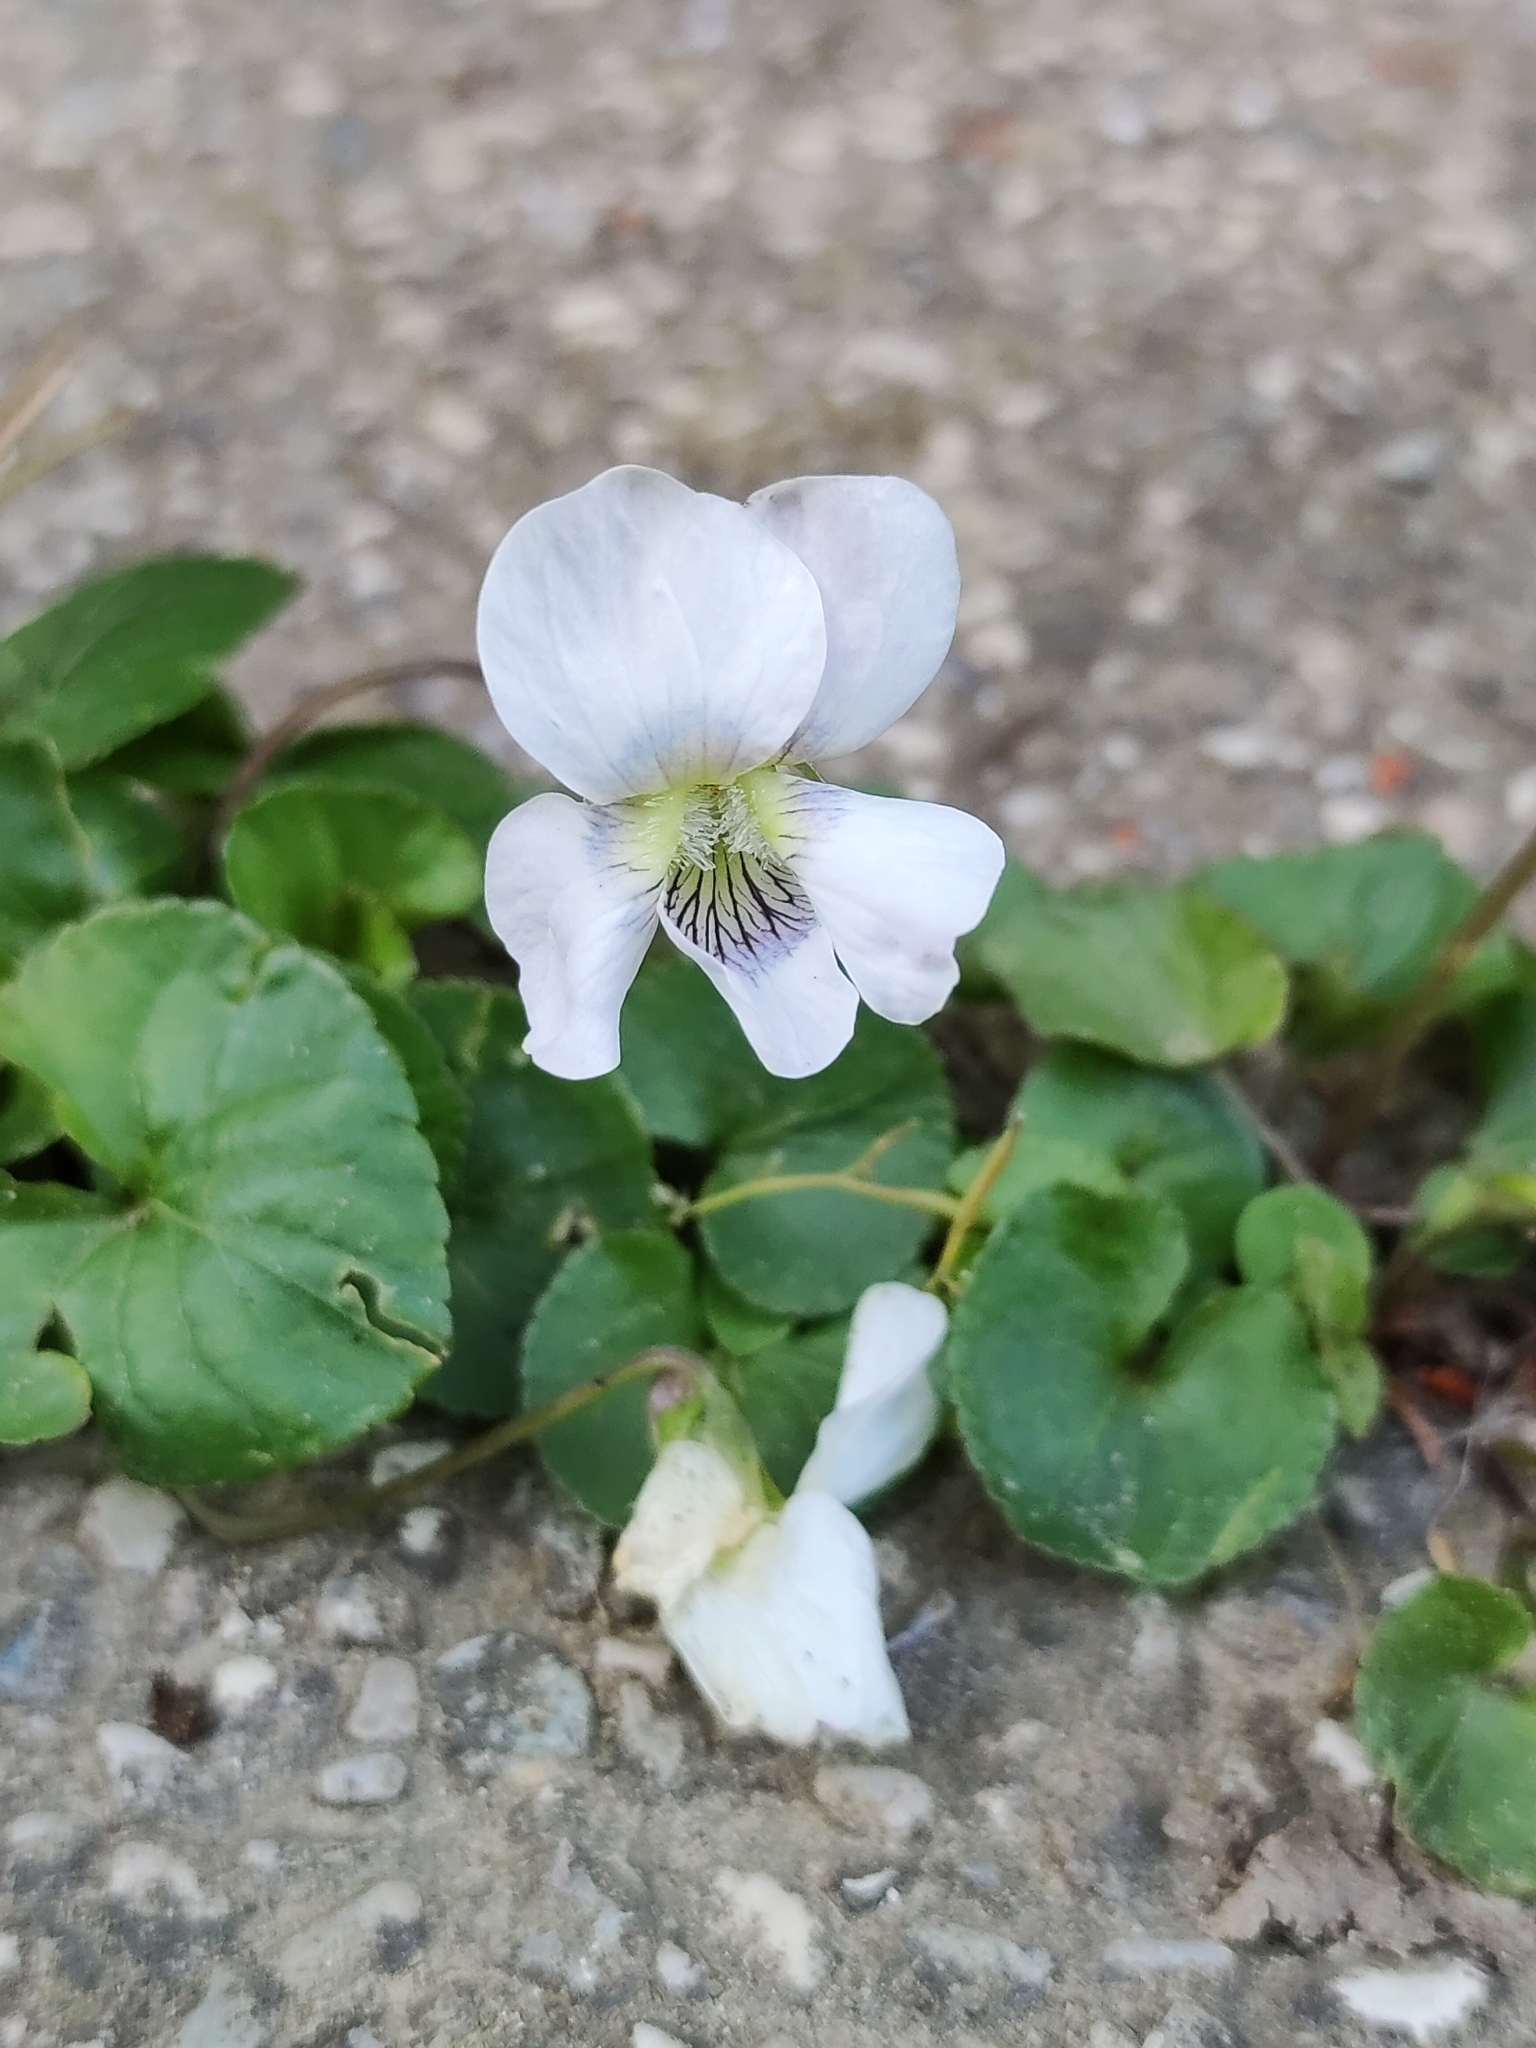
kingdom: Plantae
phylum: Tracheophyta
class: Magnoliopsida
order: Malpighiales
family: Violaceae
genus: Viola
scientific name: Viola sororia
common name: Dooryard violet
